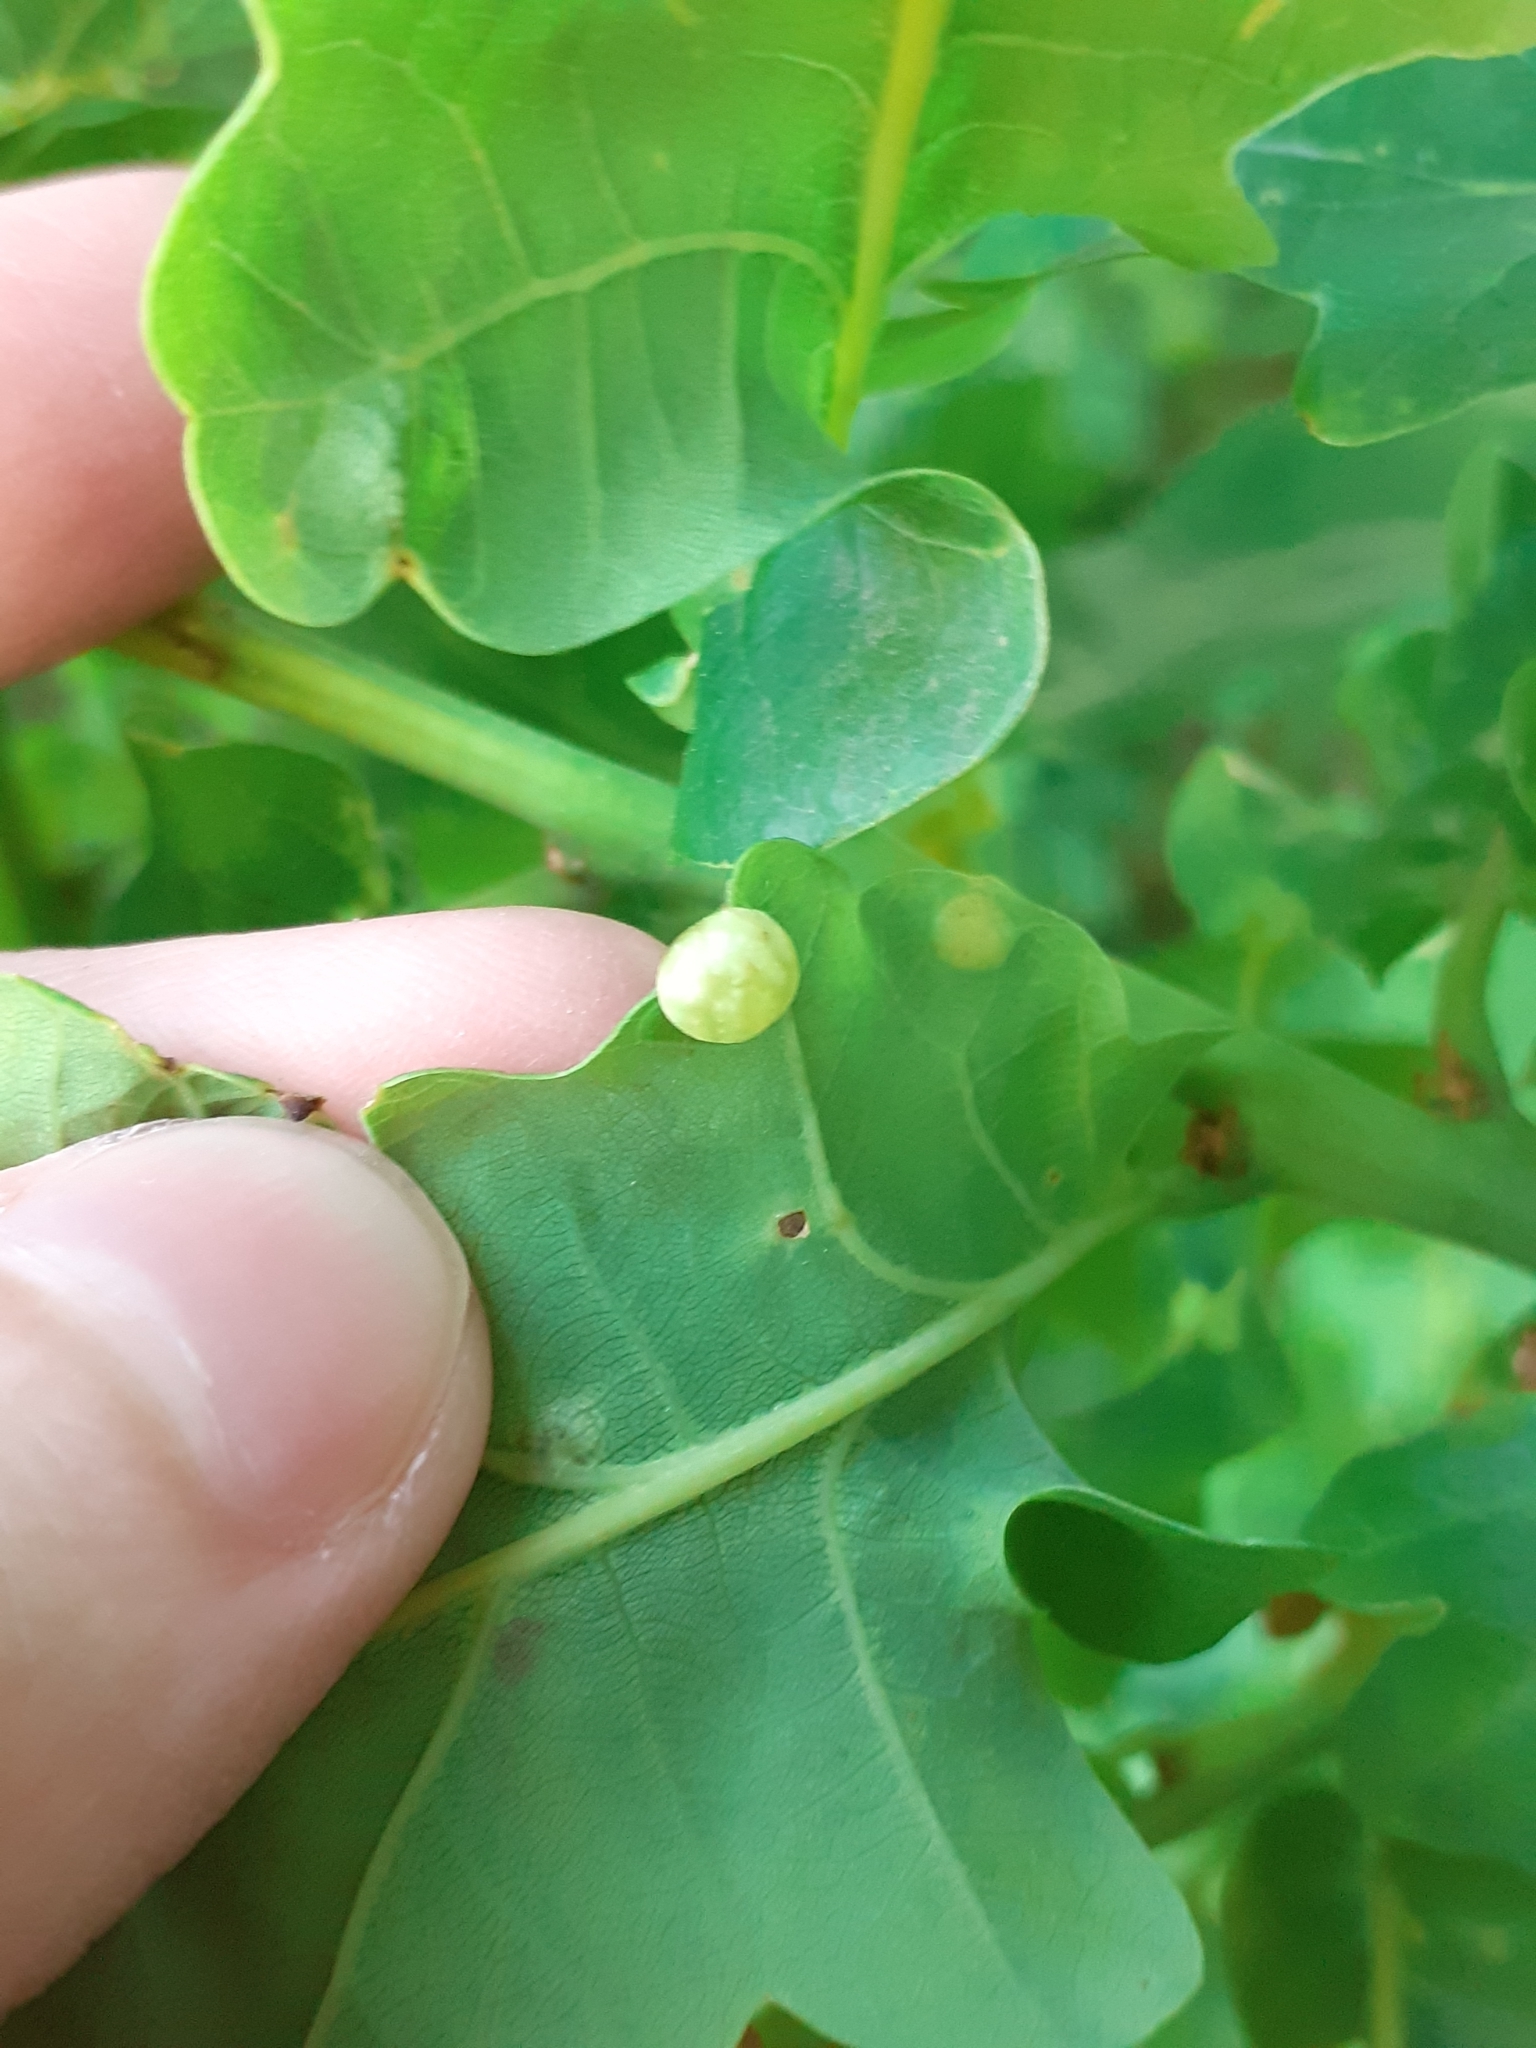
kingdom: Animalia
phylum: Arthropoda
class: Insecta
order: Hymenoptera
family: Cynipidae
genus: Neuroterus
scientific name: Neuroterus quercusbaccarum
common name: Common spangle gall
